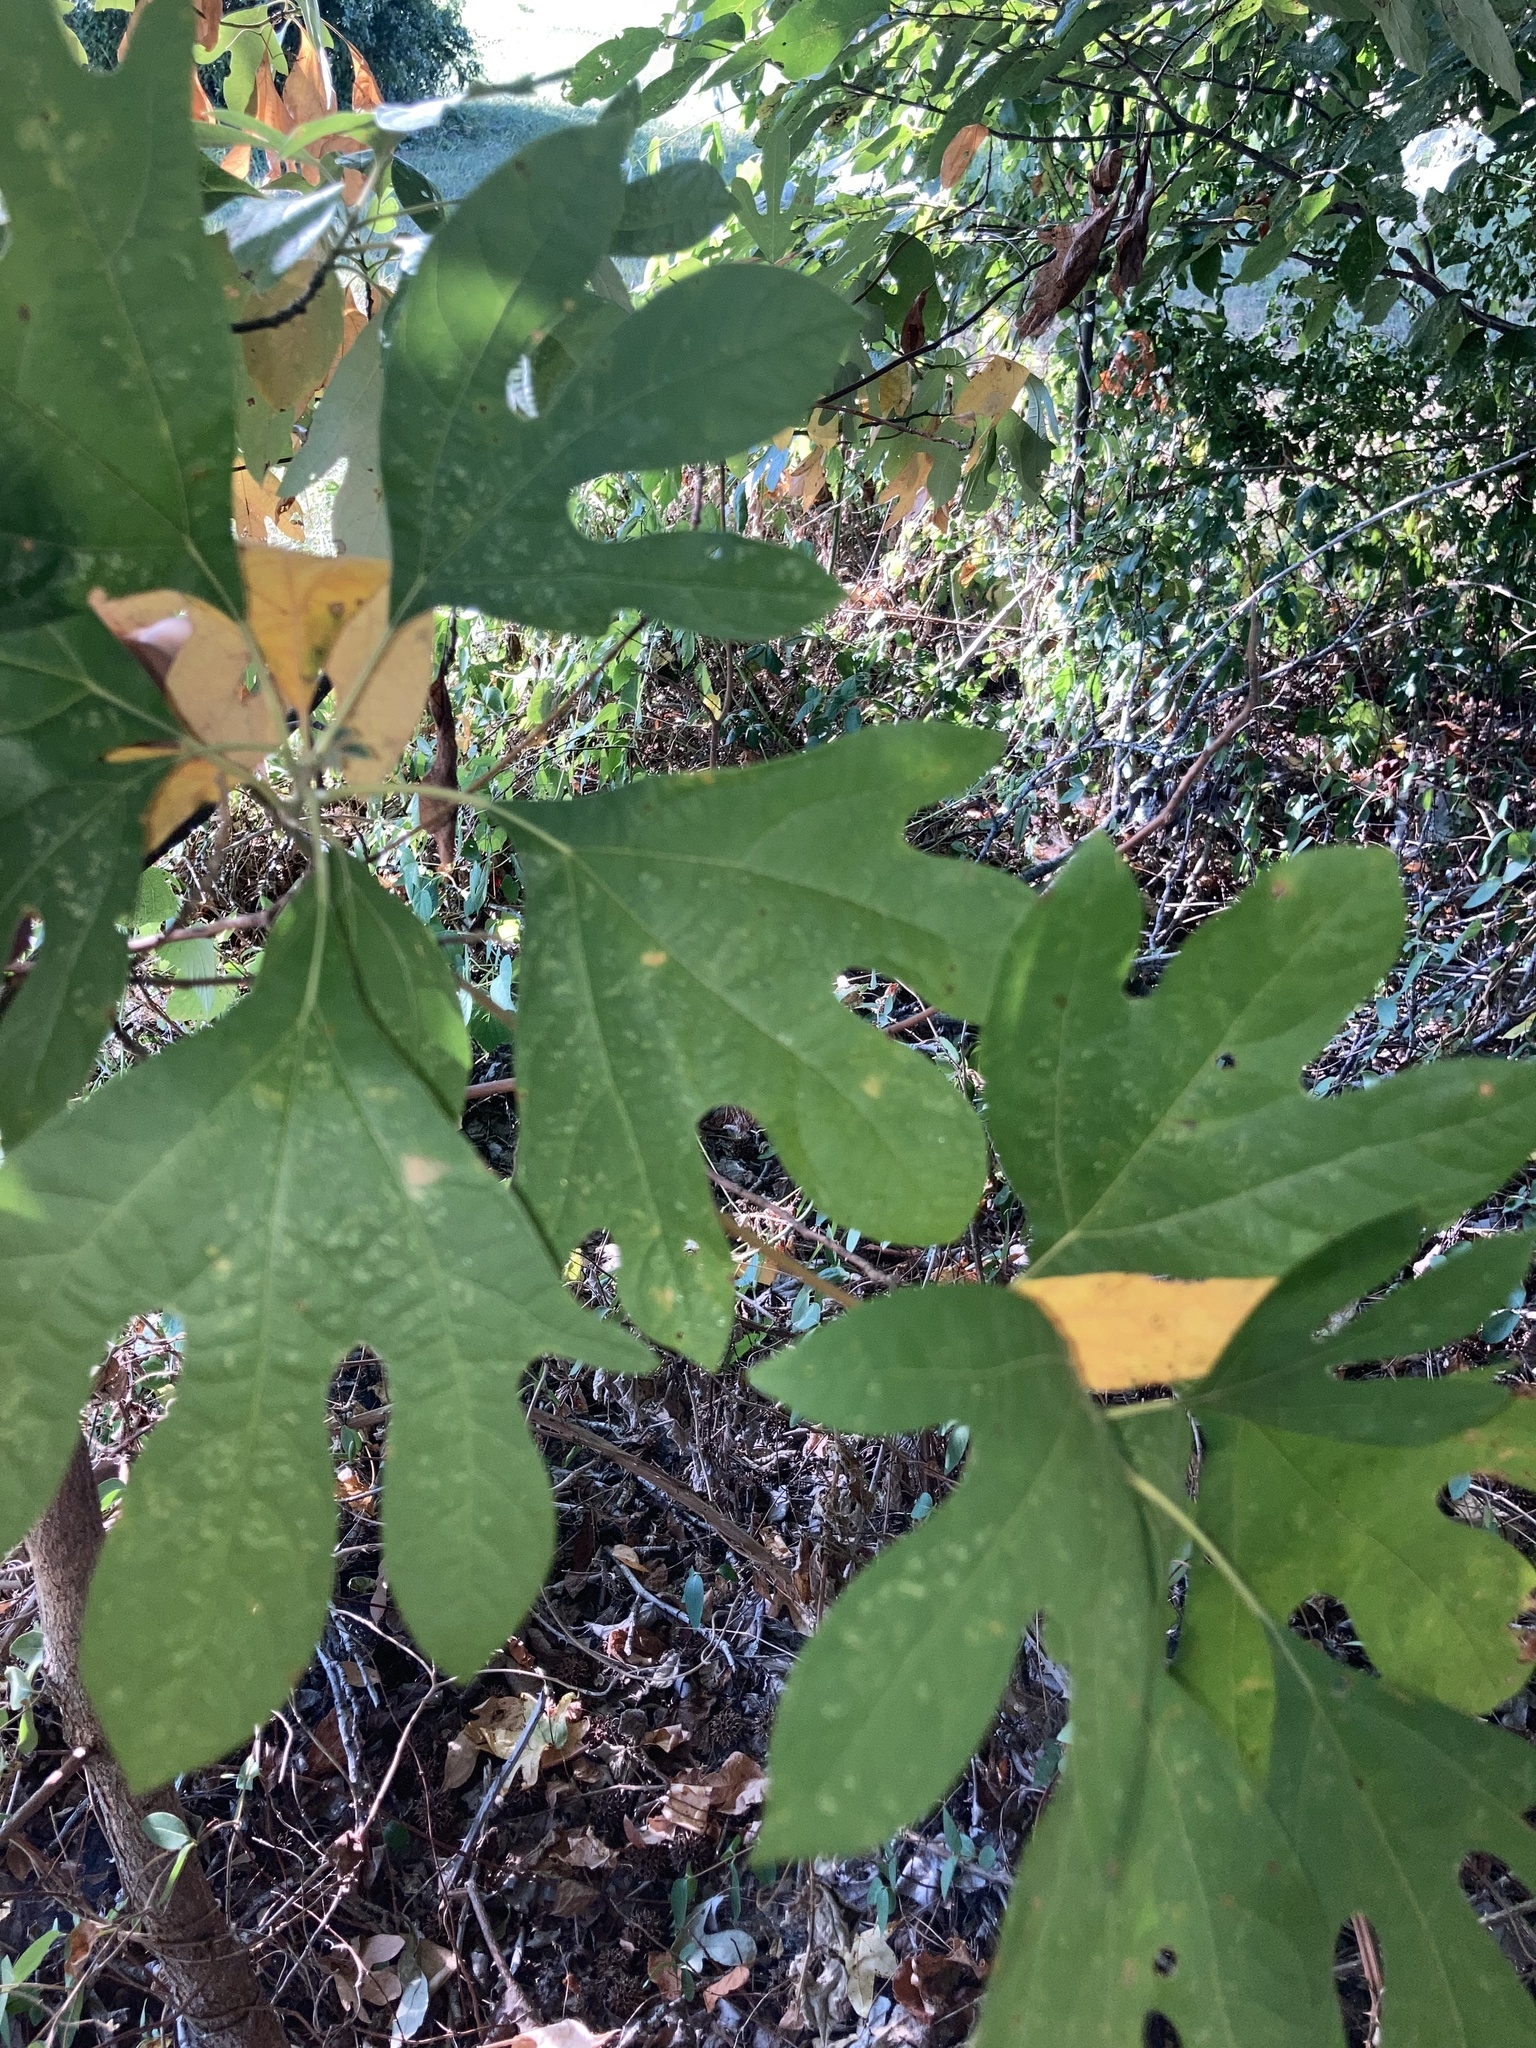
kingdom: Plantae
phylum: Tracheophyta
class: Magnoliopsida
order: Laurales
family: Lauraceae
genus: Sassafras
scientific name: Sassafras albidum
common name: Sassafras
